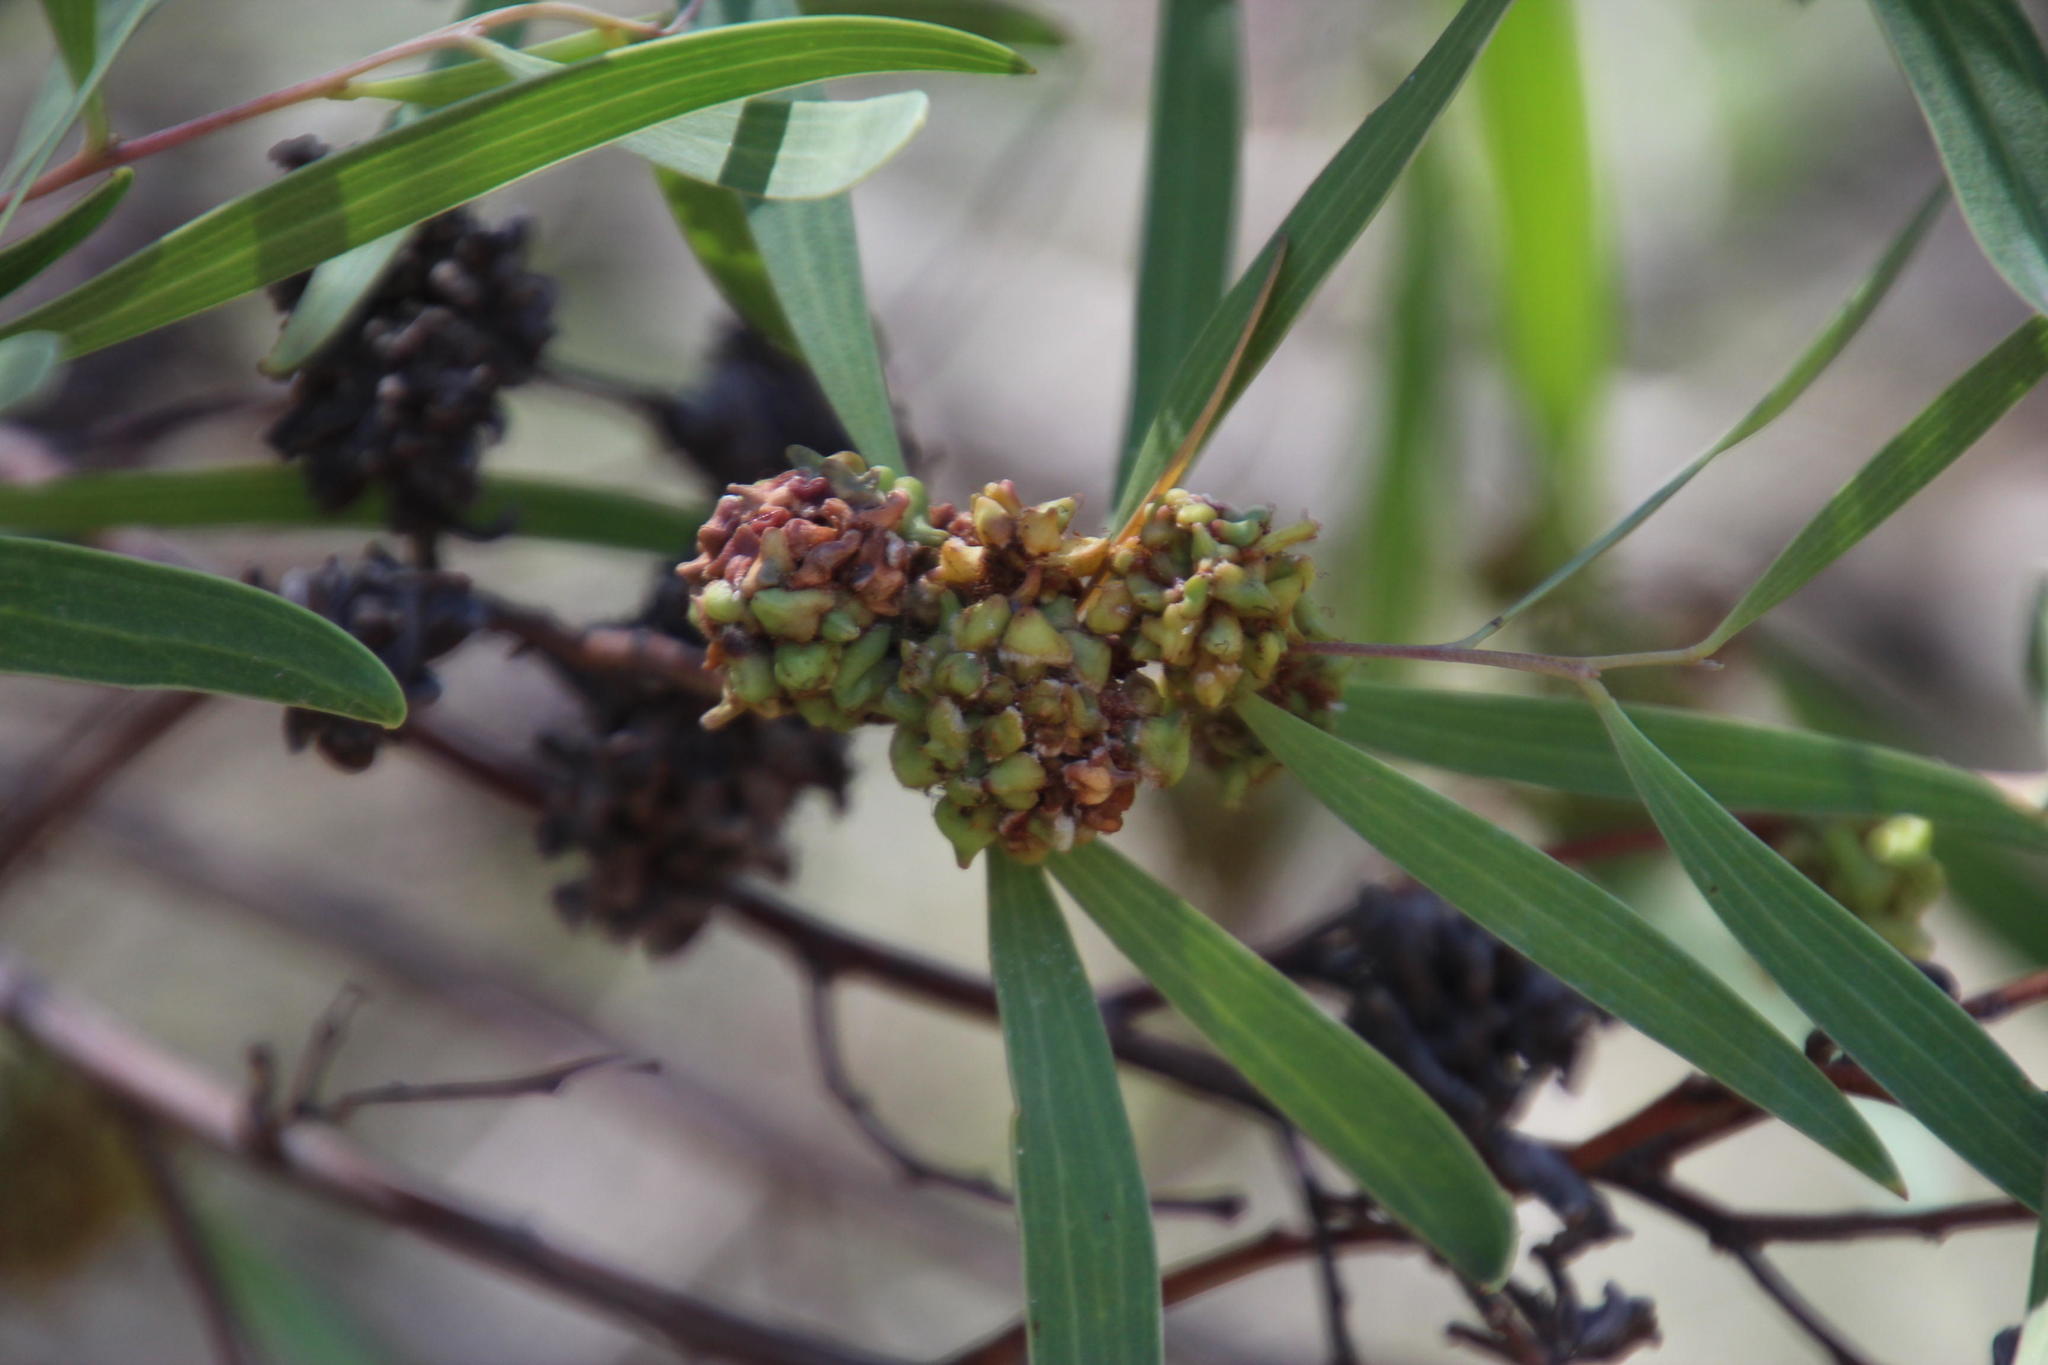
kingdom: Plantae
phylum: Tracheophyta
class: Magnoliopsida
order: Fabales
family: Fabaceae
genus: Acacia
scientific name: Acacia cyclops
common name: Coastal wattle
